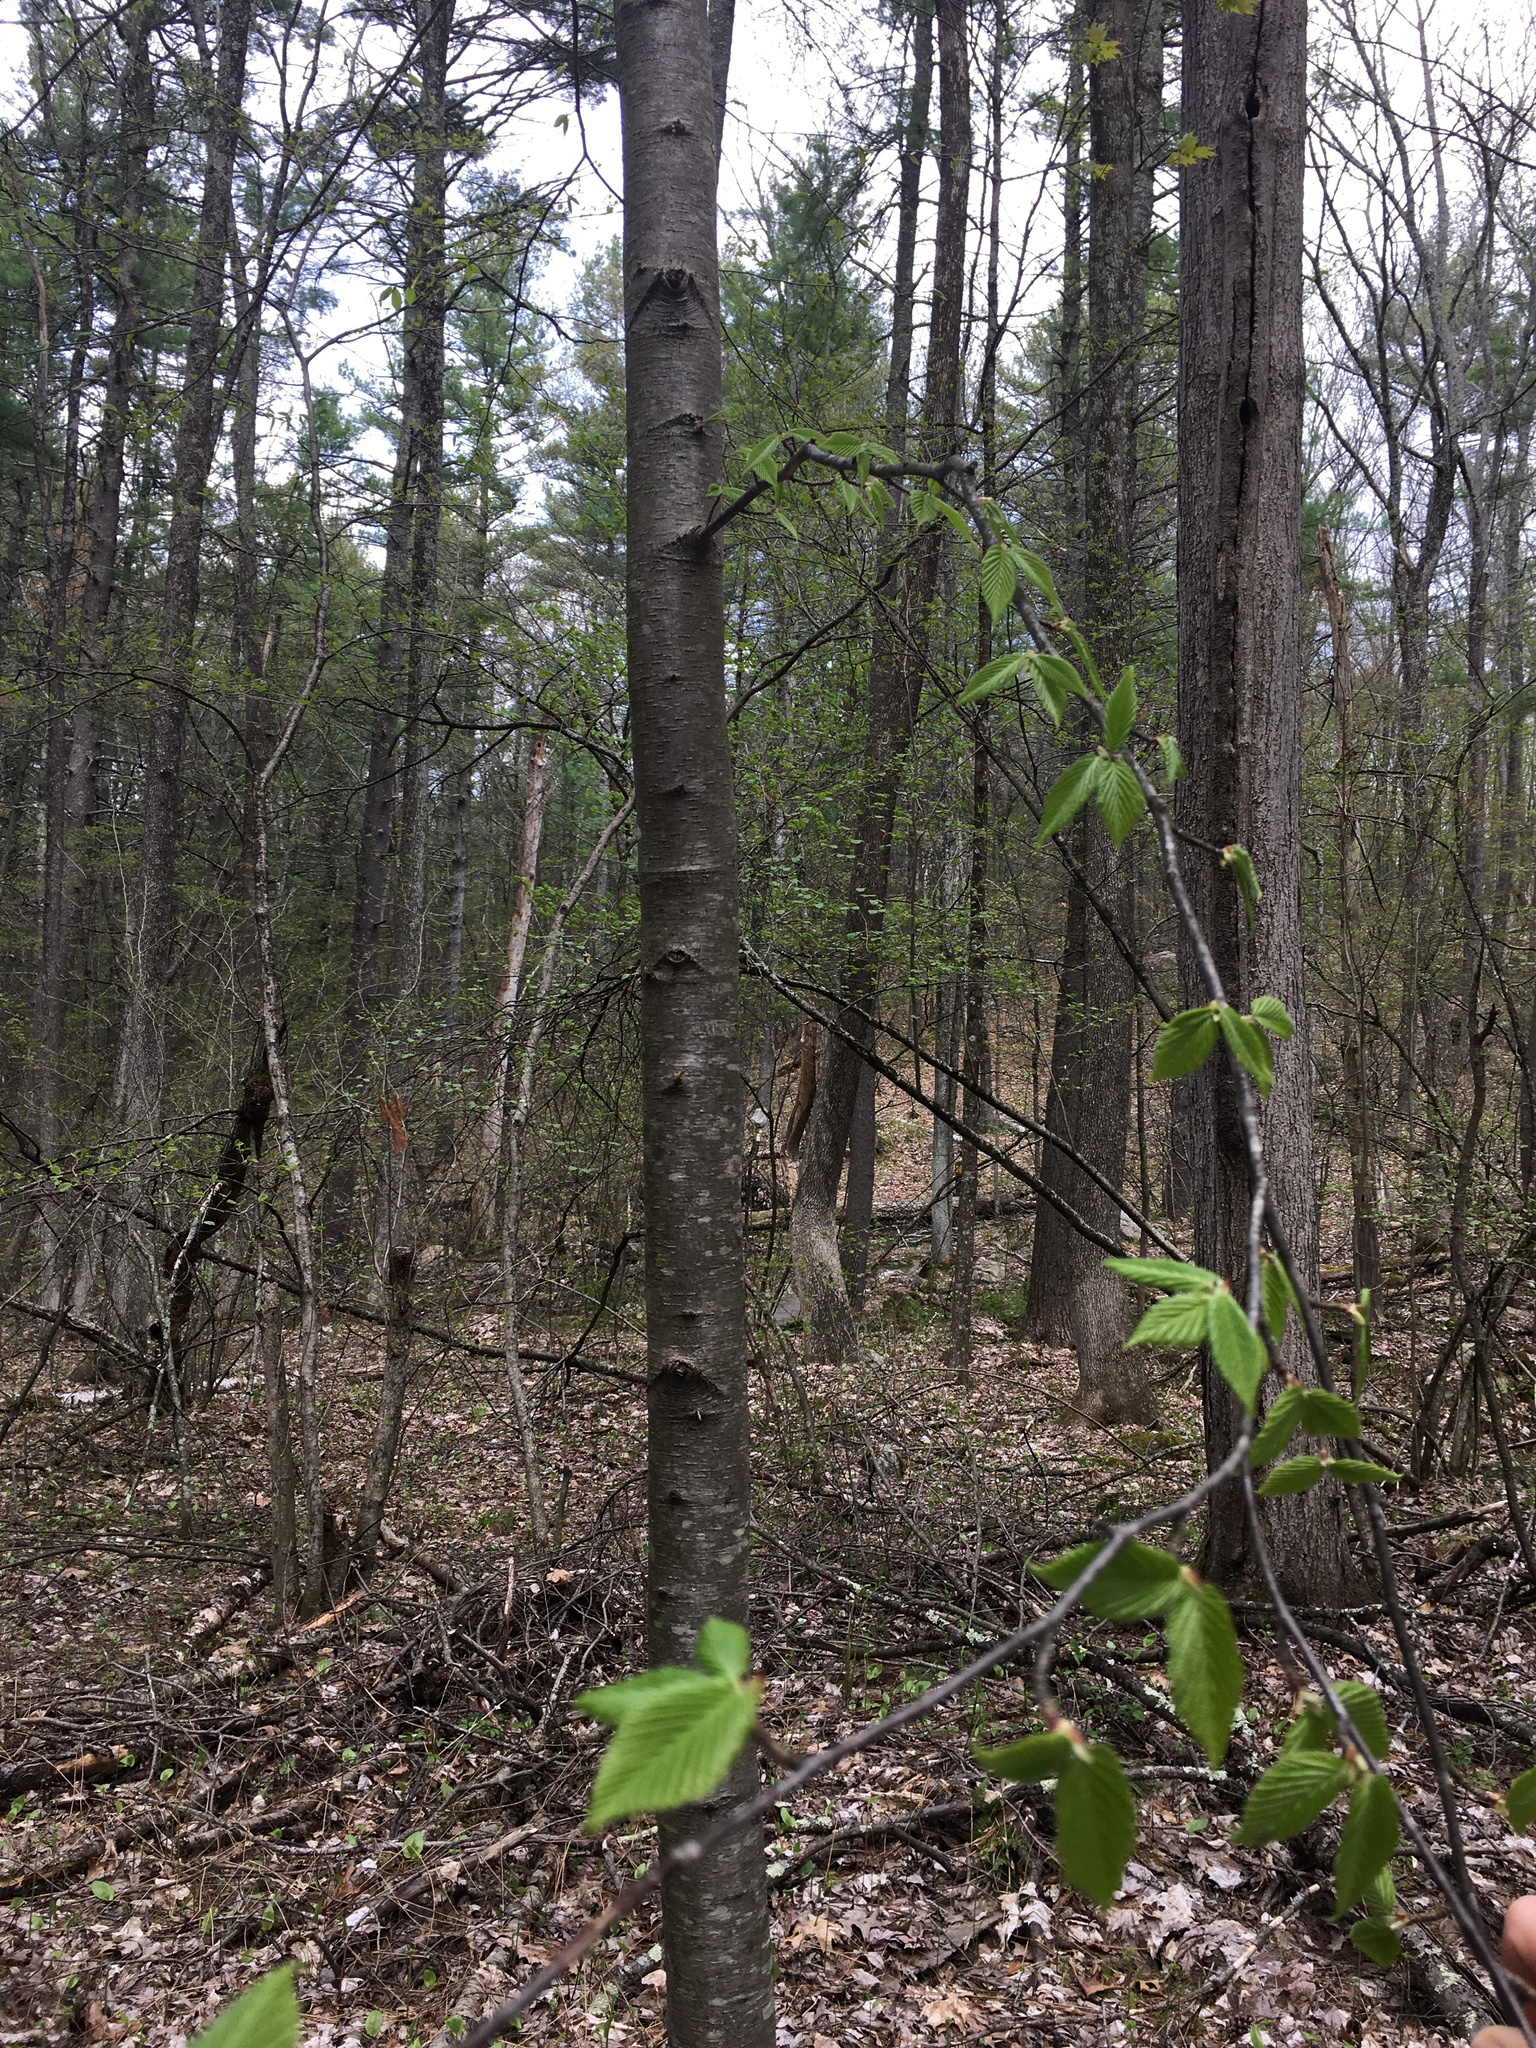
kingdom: Plantae
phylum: Tracheophyta
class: Magnoliopsida
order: Fagales
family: Fagaceae
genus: Fagus
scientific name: Fagus grandifolia
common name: American beech
